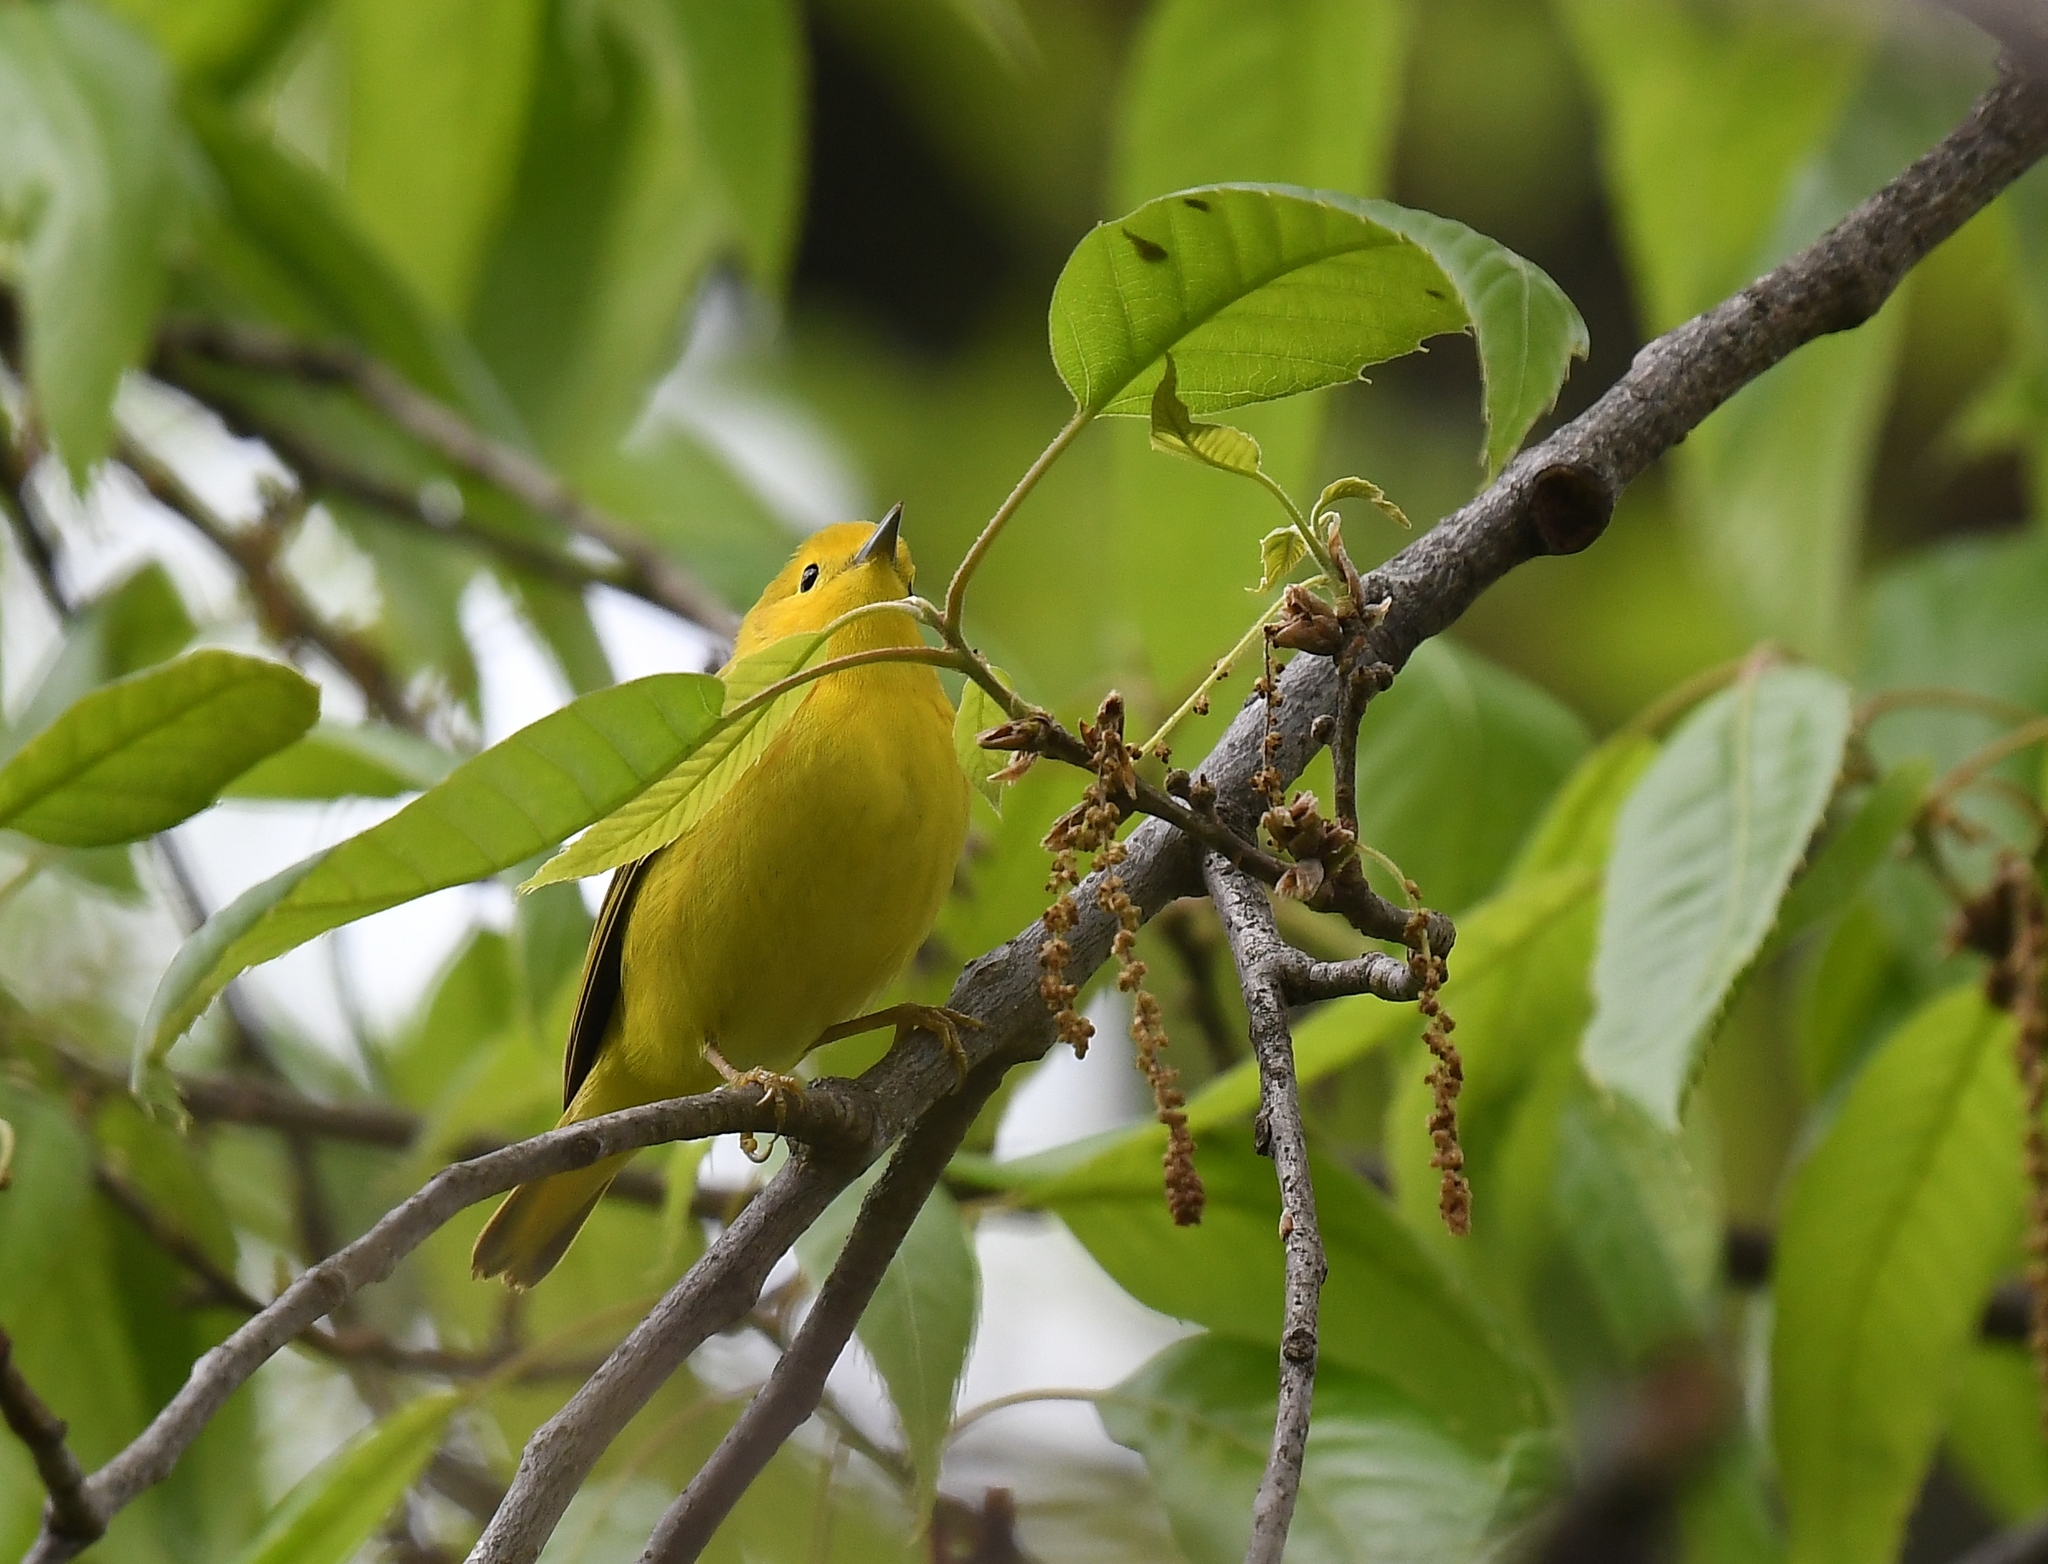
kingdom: Animalia
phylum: Chordata
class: Aves
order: Passeriformes
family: Parulidae
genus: Setophaga
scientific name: Setophaga petechia
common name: Yellow warbler
